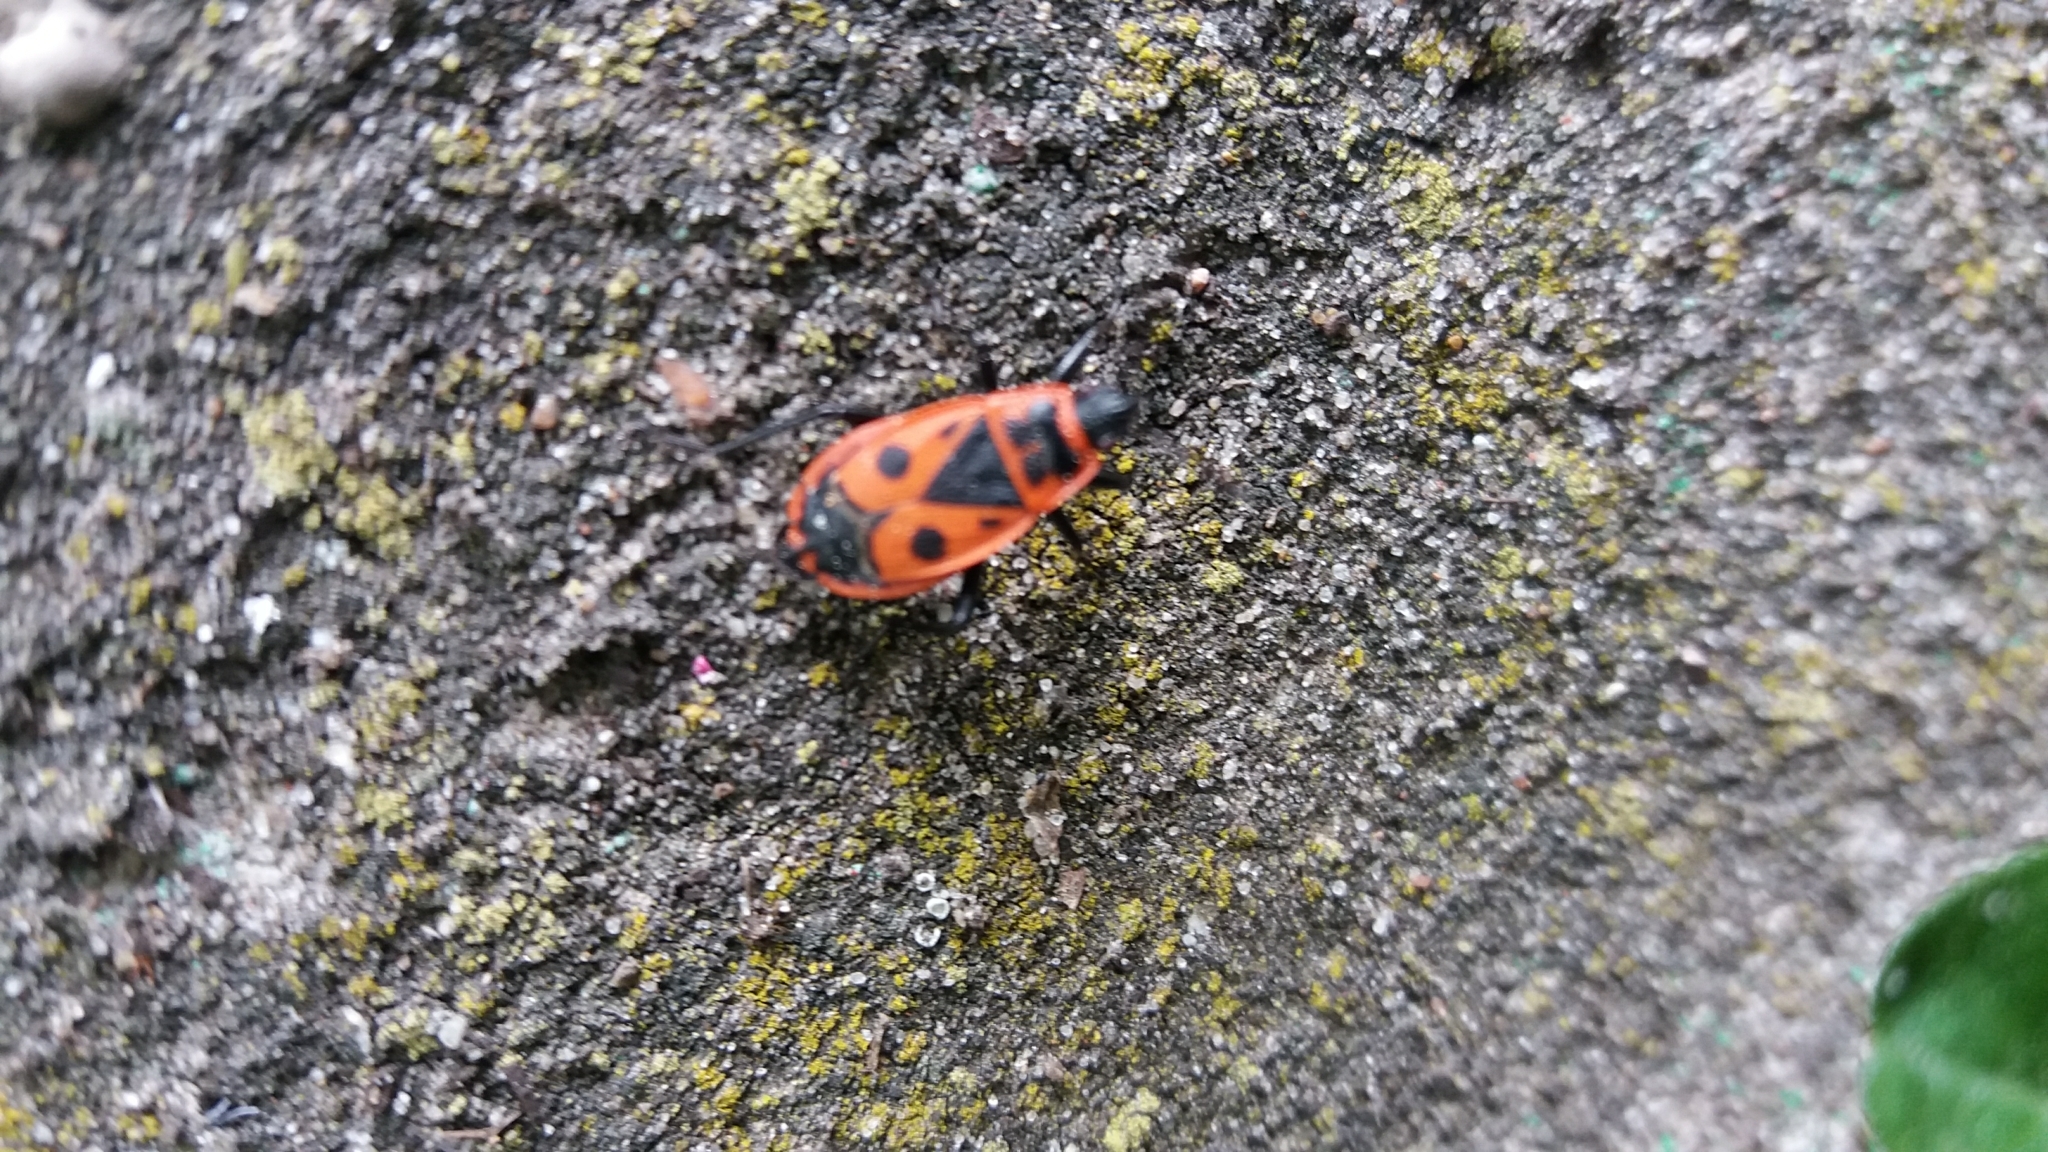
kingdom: Animalia
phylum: Arthropoda
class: Insecta
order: Hemiptera
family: Pyrrhocoridae
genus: Pyrrhocoris
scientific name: Pyrrhocoris apterus
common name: Firebug
